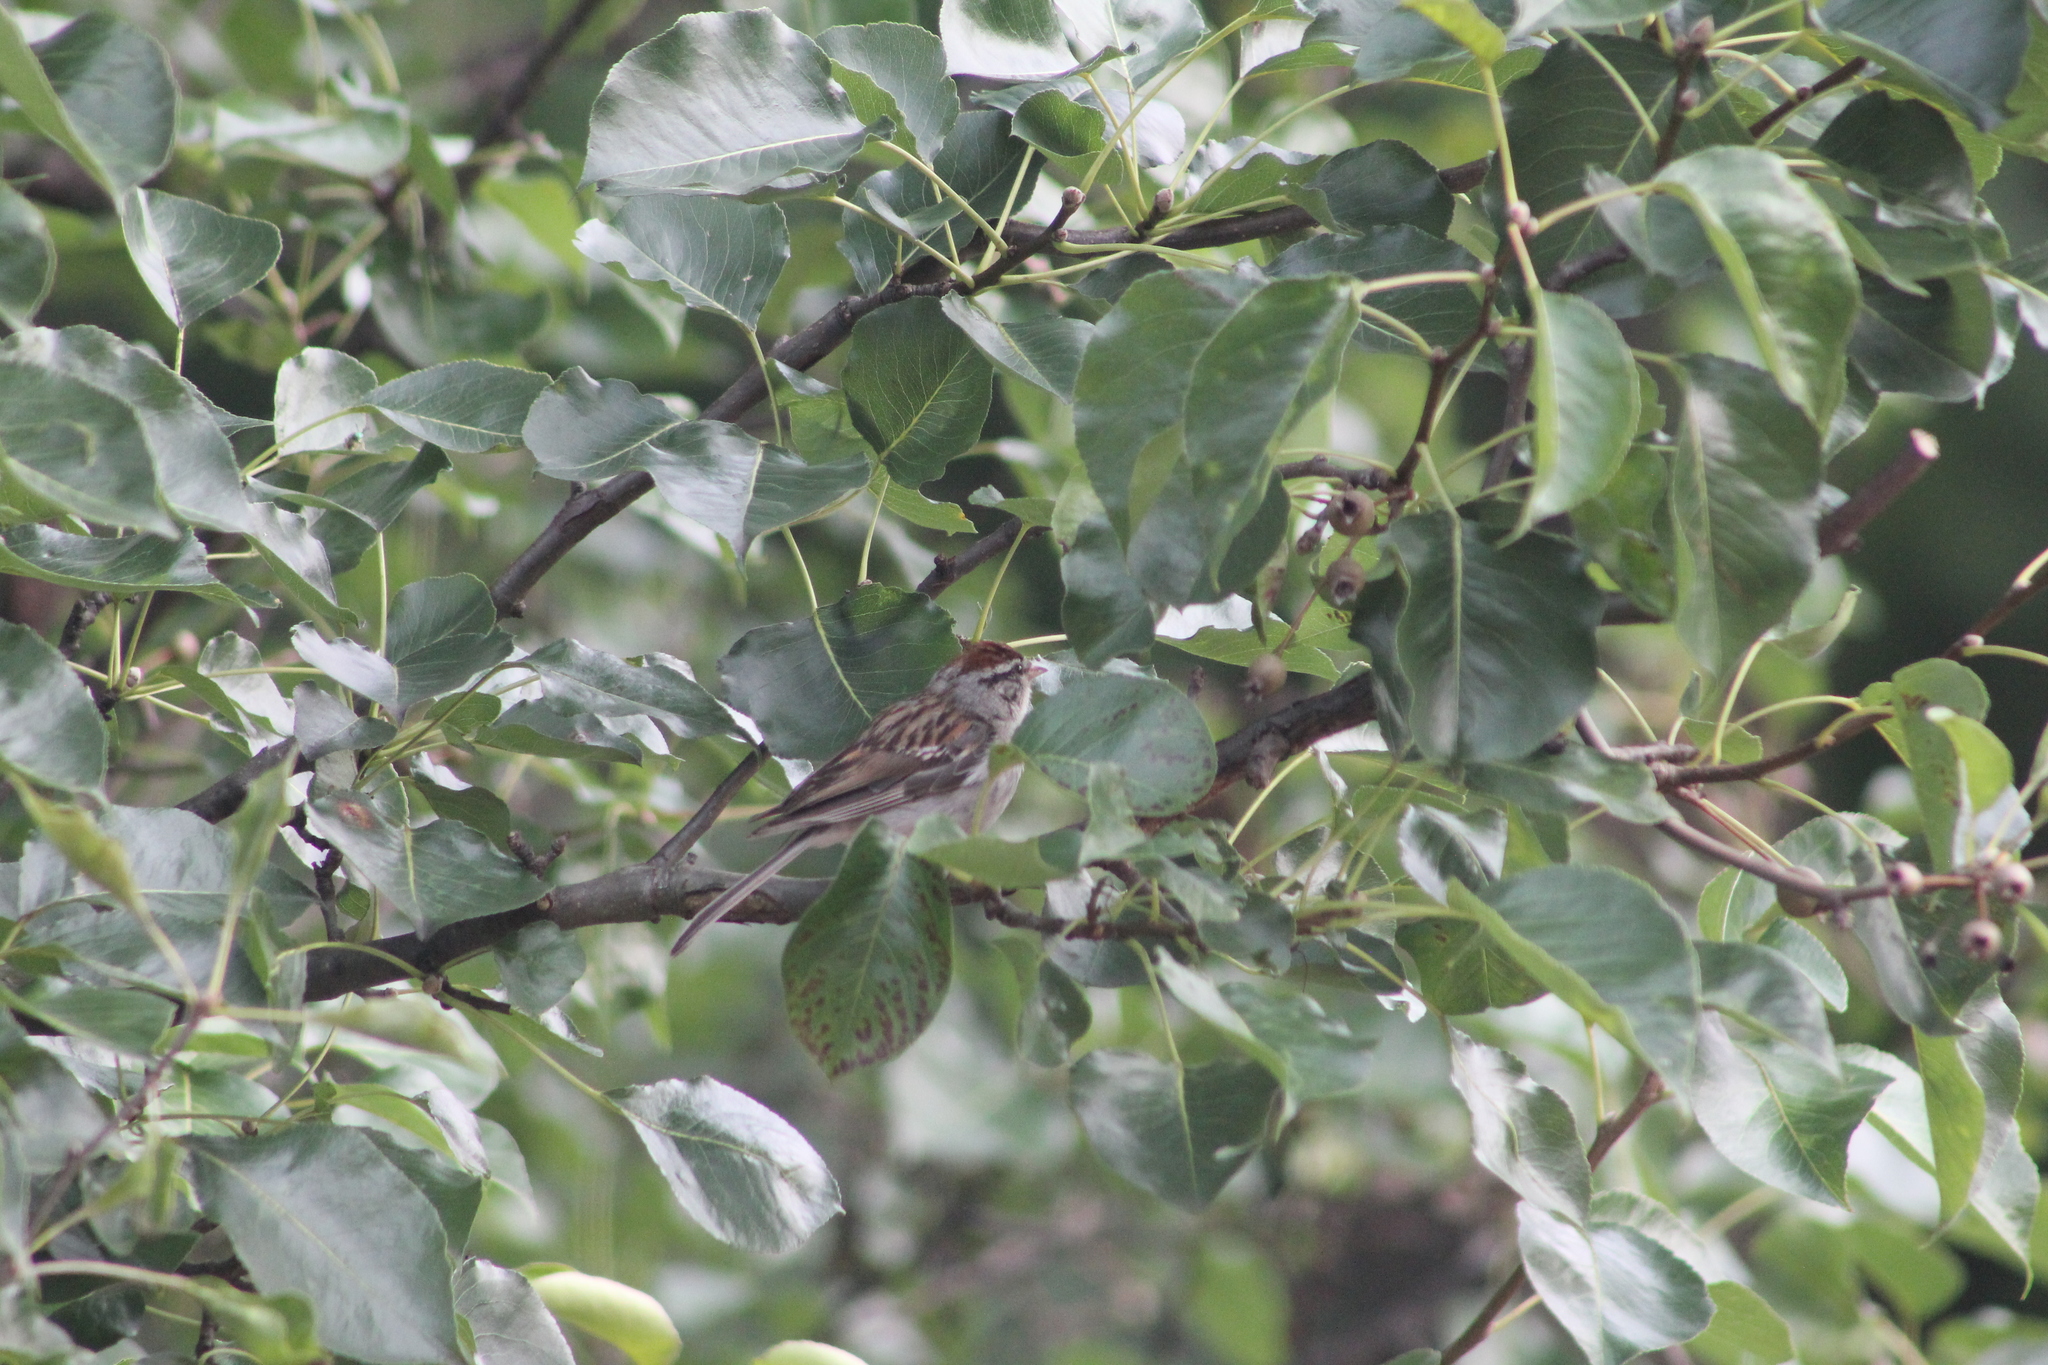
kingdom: Animalia
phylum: Chordata
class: Aves
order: Passeriformes
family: Passerellidae
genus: Spizella
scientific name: Spizella passerina
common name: Chipping sparrow
